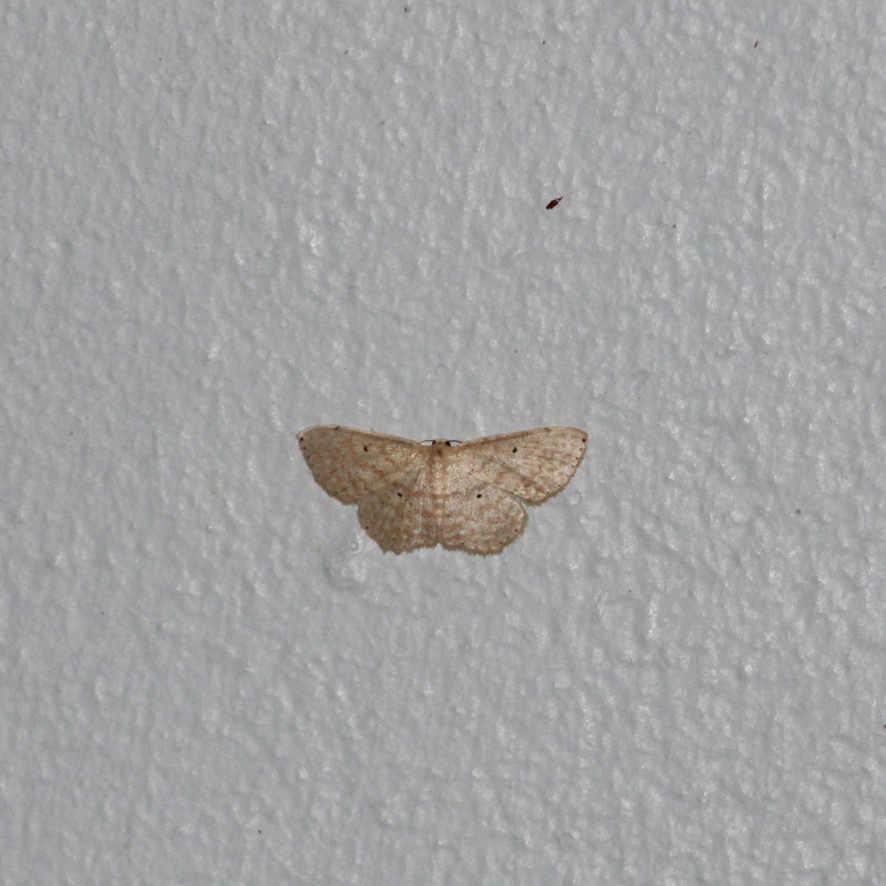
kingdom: Animalia
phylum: Arthropoda
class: Insecta
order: Lepidoptera
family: Geometridae
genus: Scopula
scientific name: Scopula apparitaria
